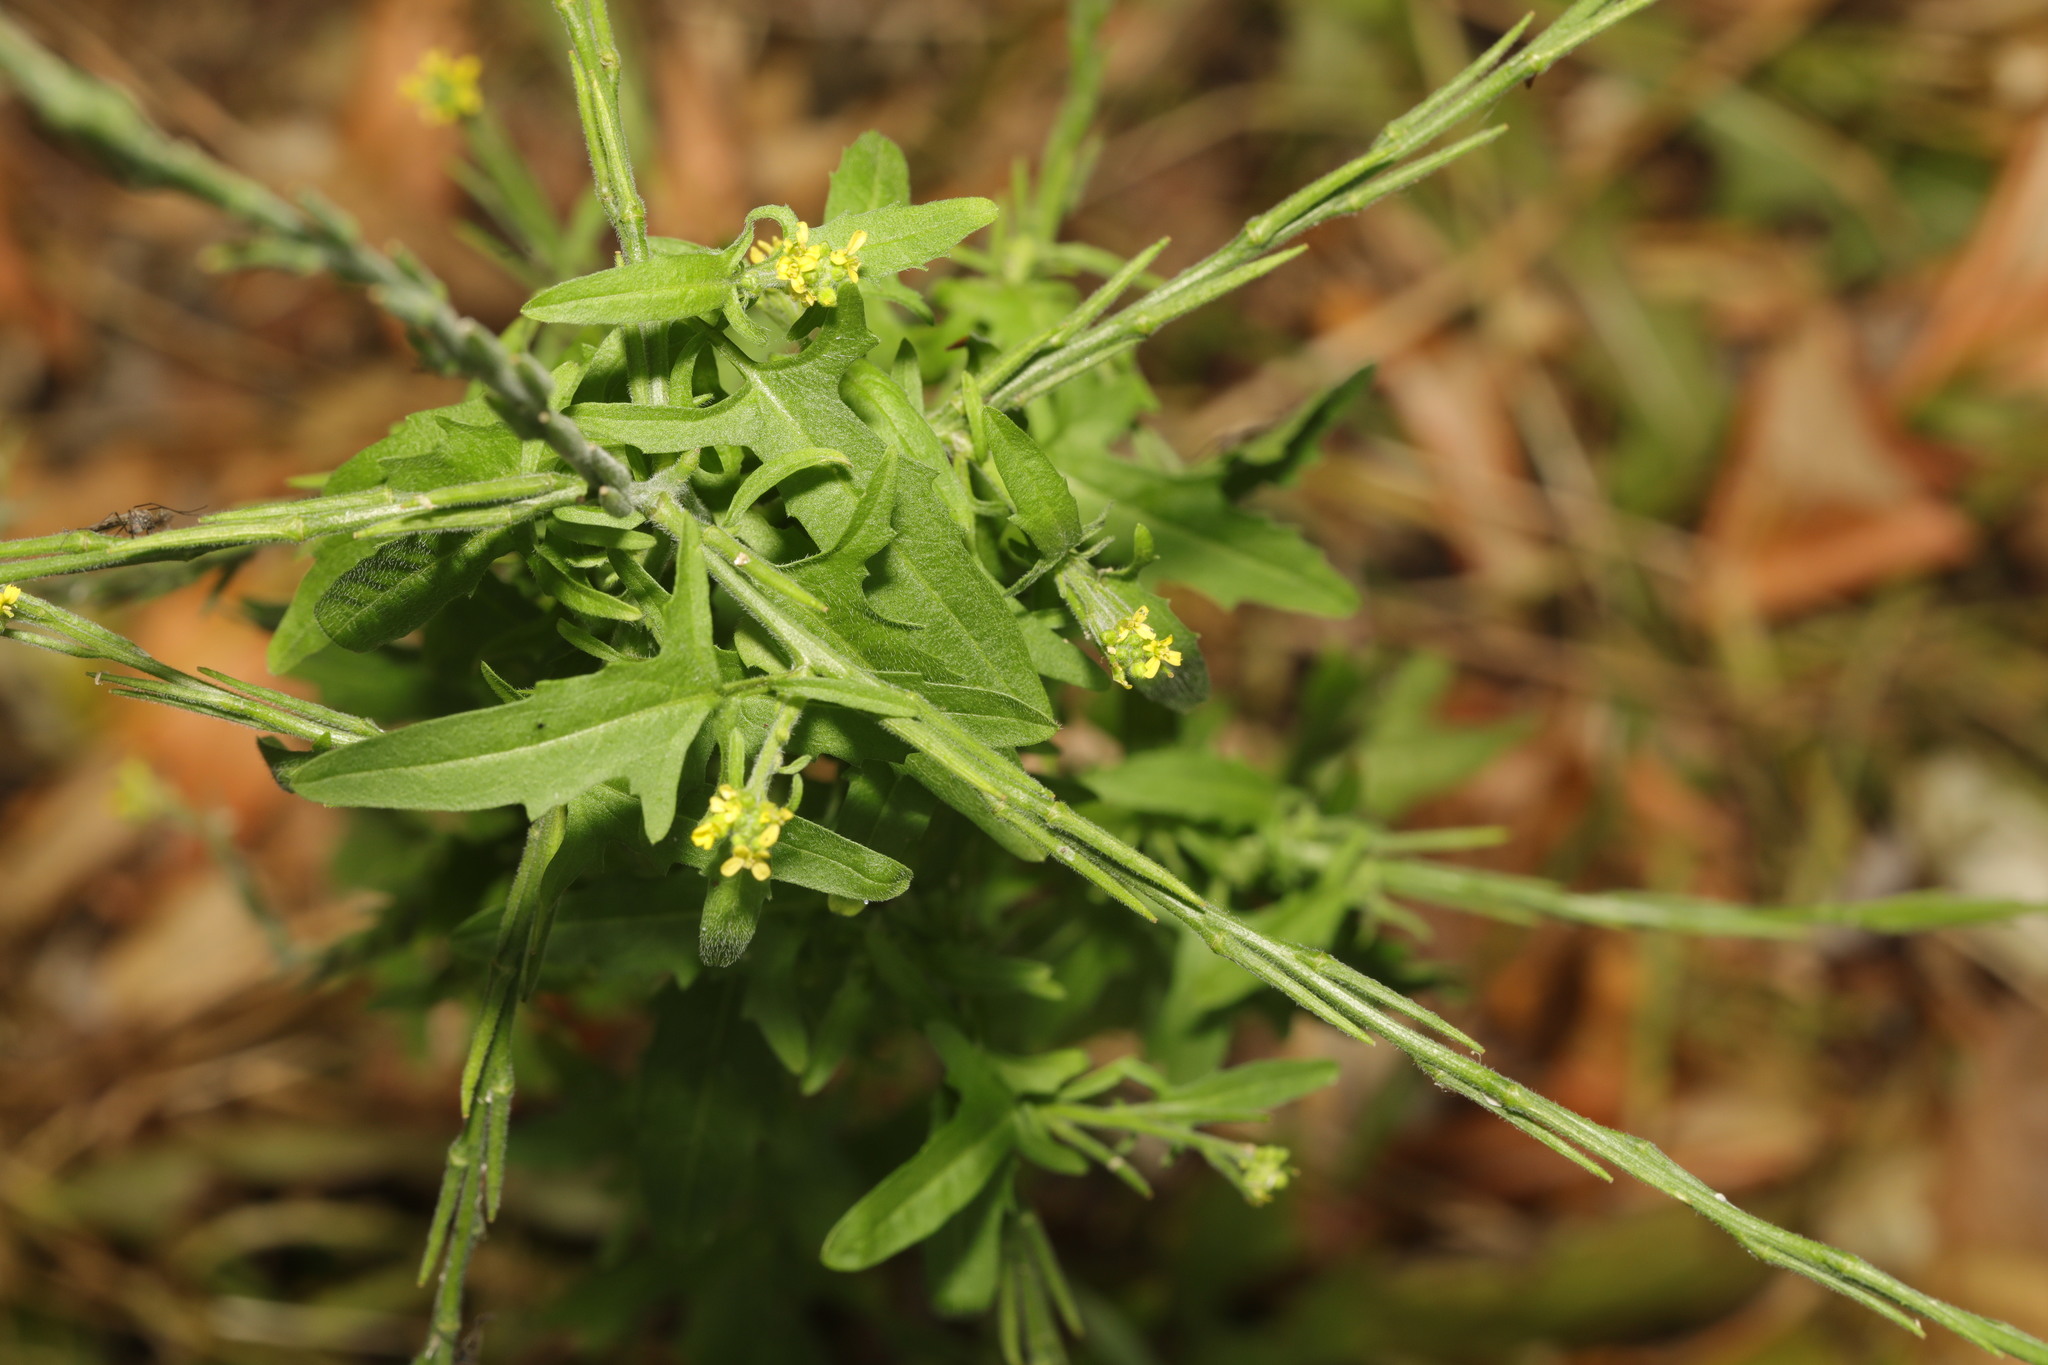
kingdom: Plantae
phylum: Tracheophyta
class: Magnoliopsida
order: Brassicales
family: Brassicaceae
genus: Sisymbrium
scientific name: Sisymbrium officinale
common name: Hedge mustard
